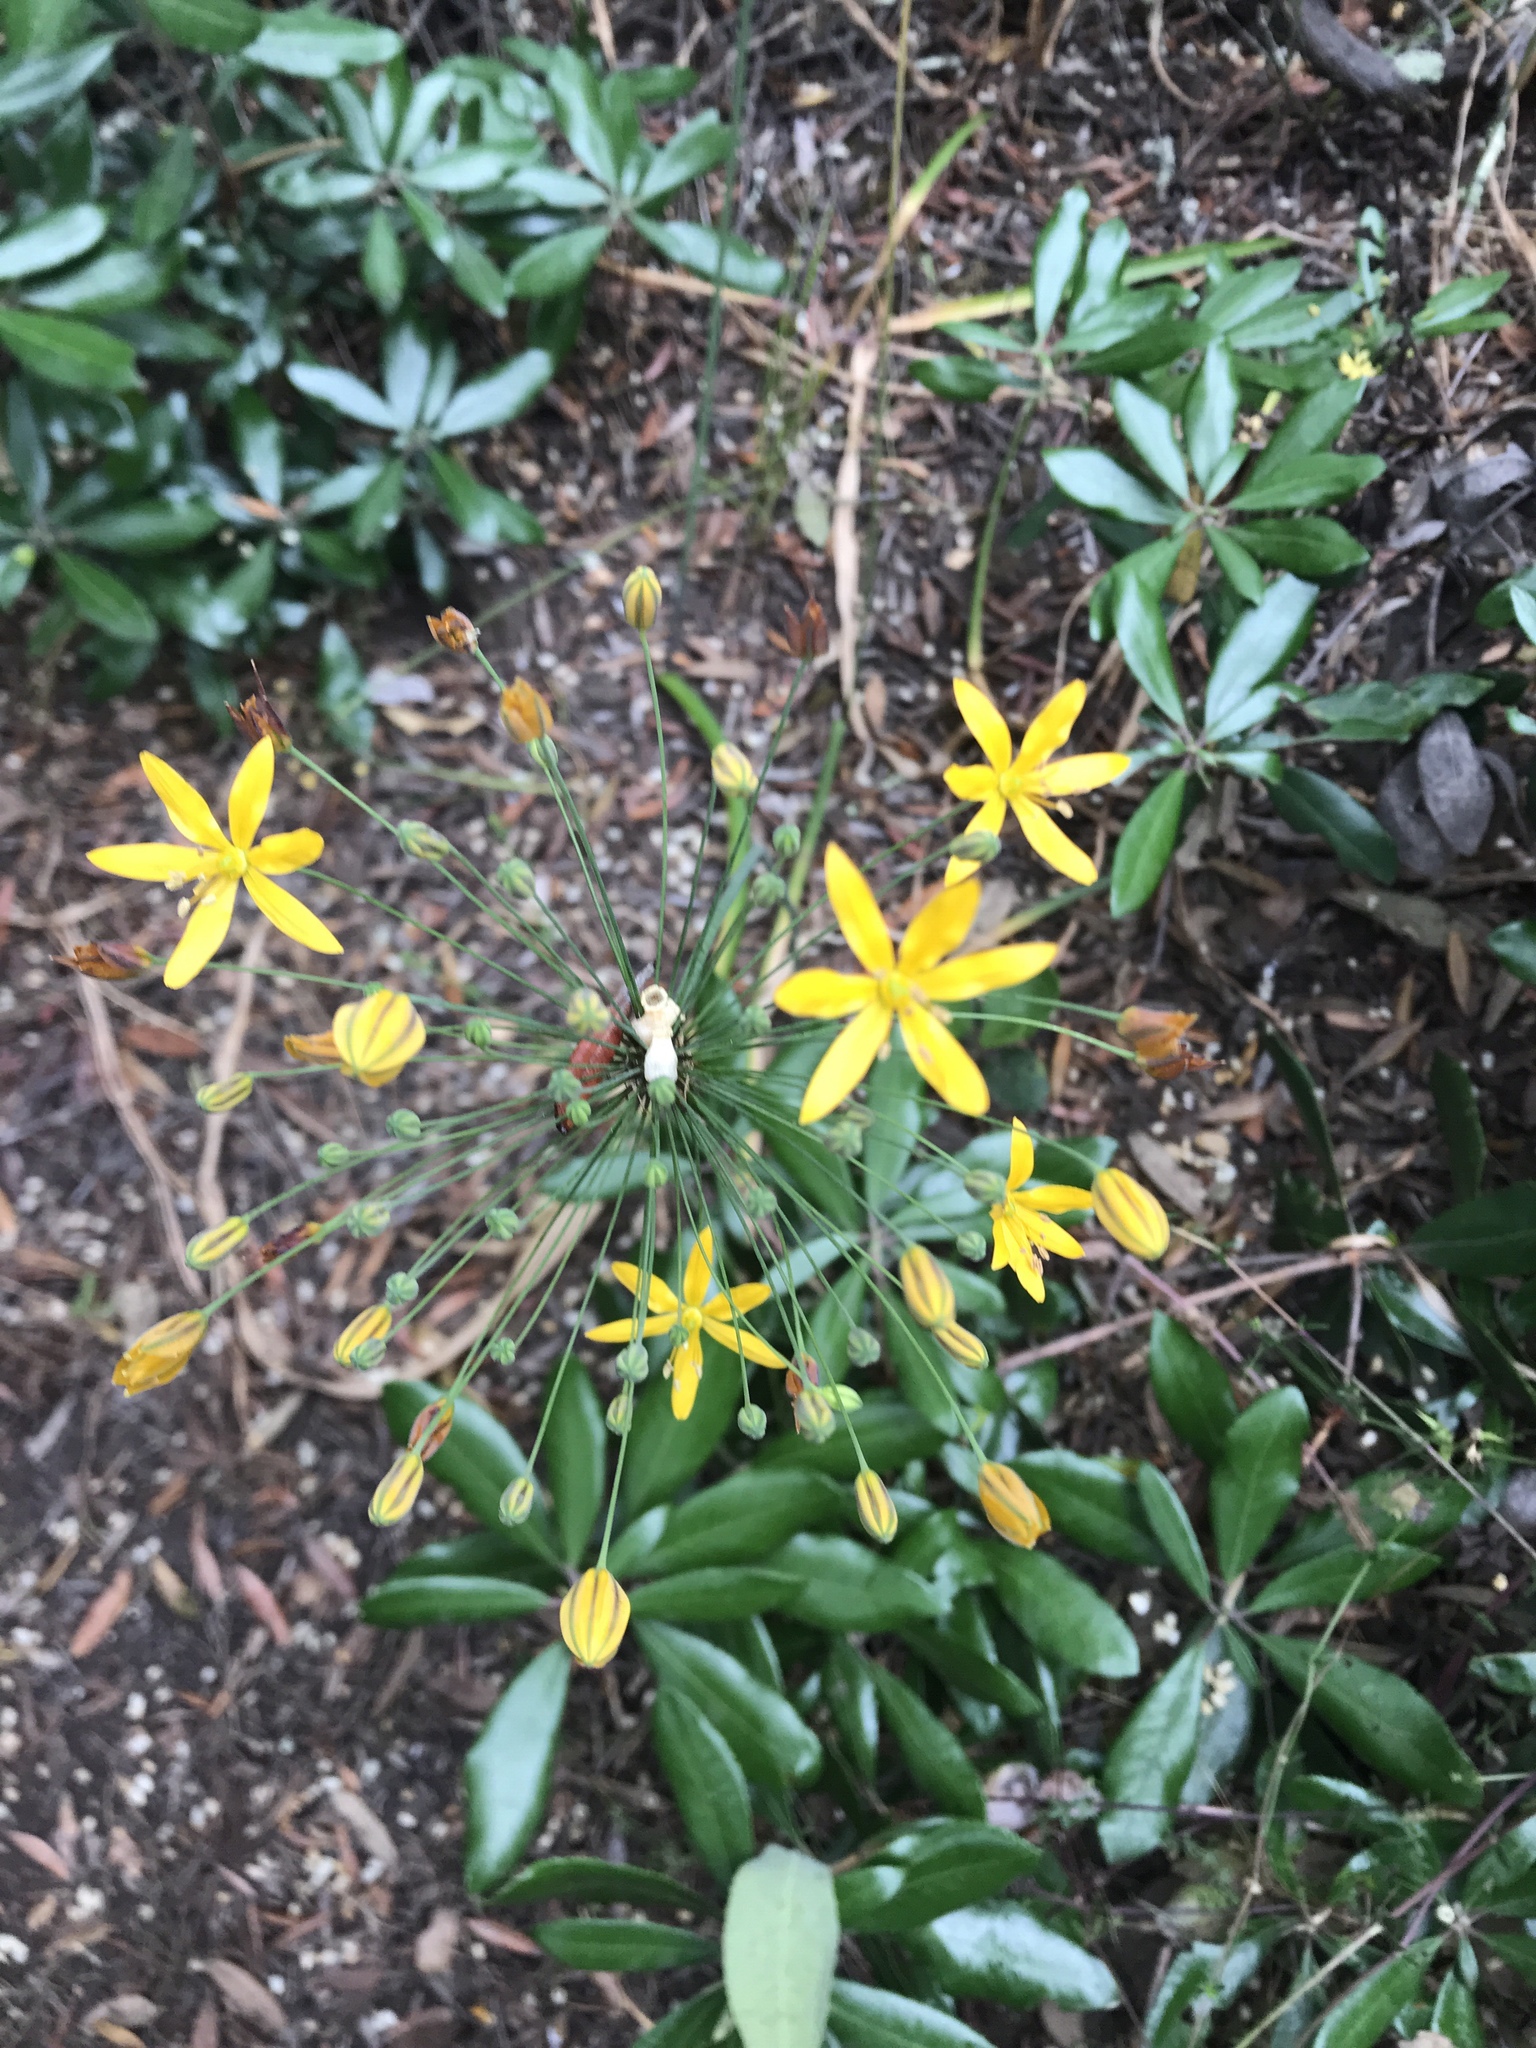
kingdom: Plantae
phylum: Tracheophyta
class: Liliopsida
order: Asparagales
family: Asparagaceae
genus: Bloomeria
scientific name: Bloomeria crocea
